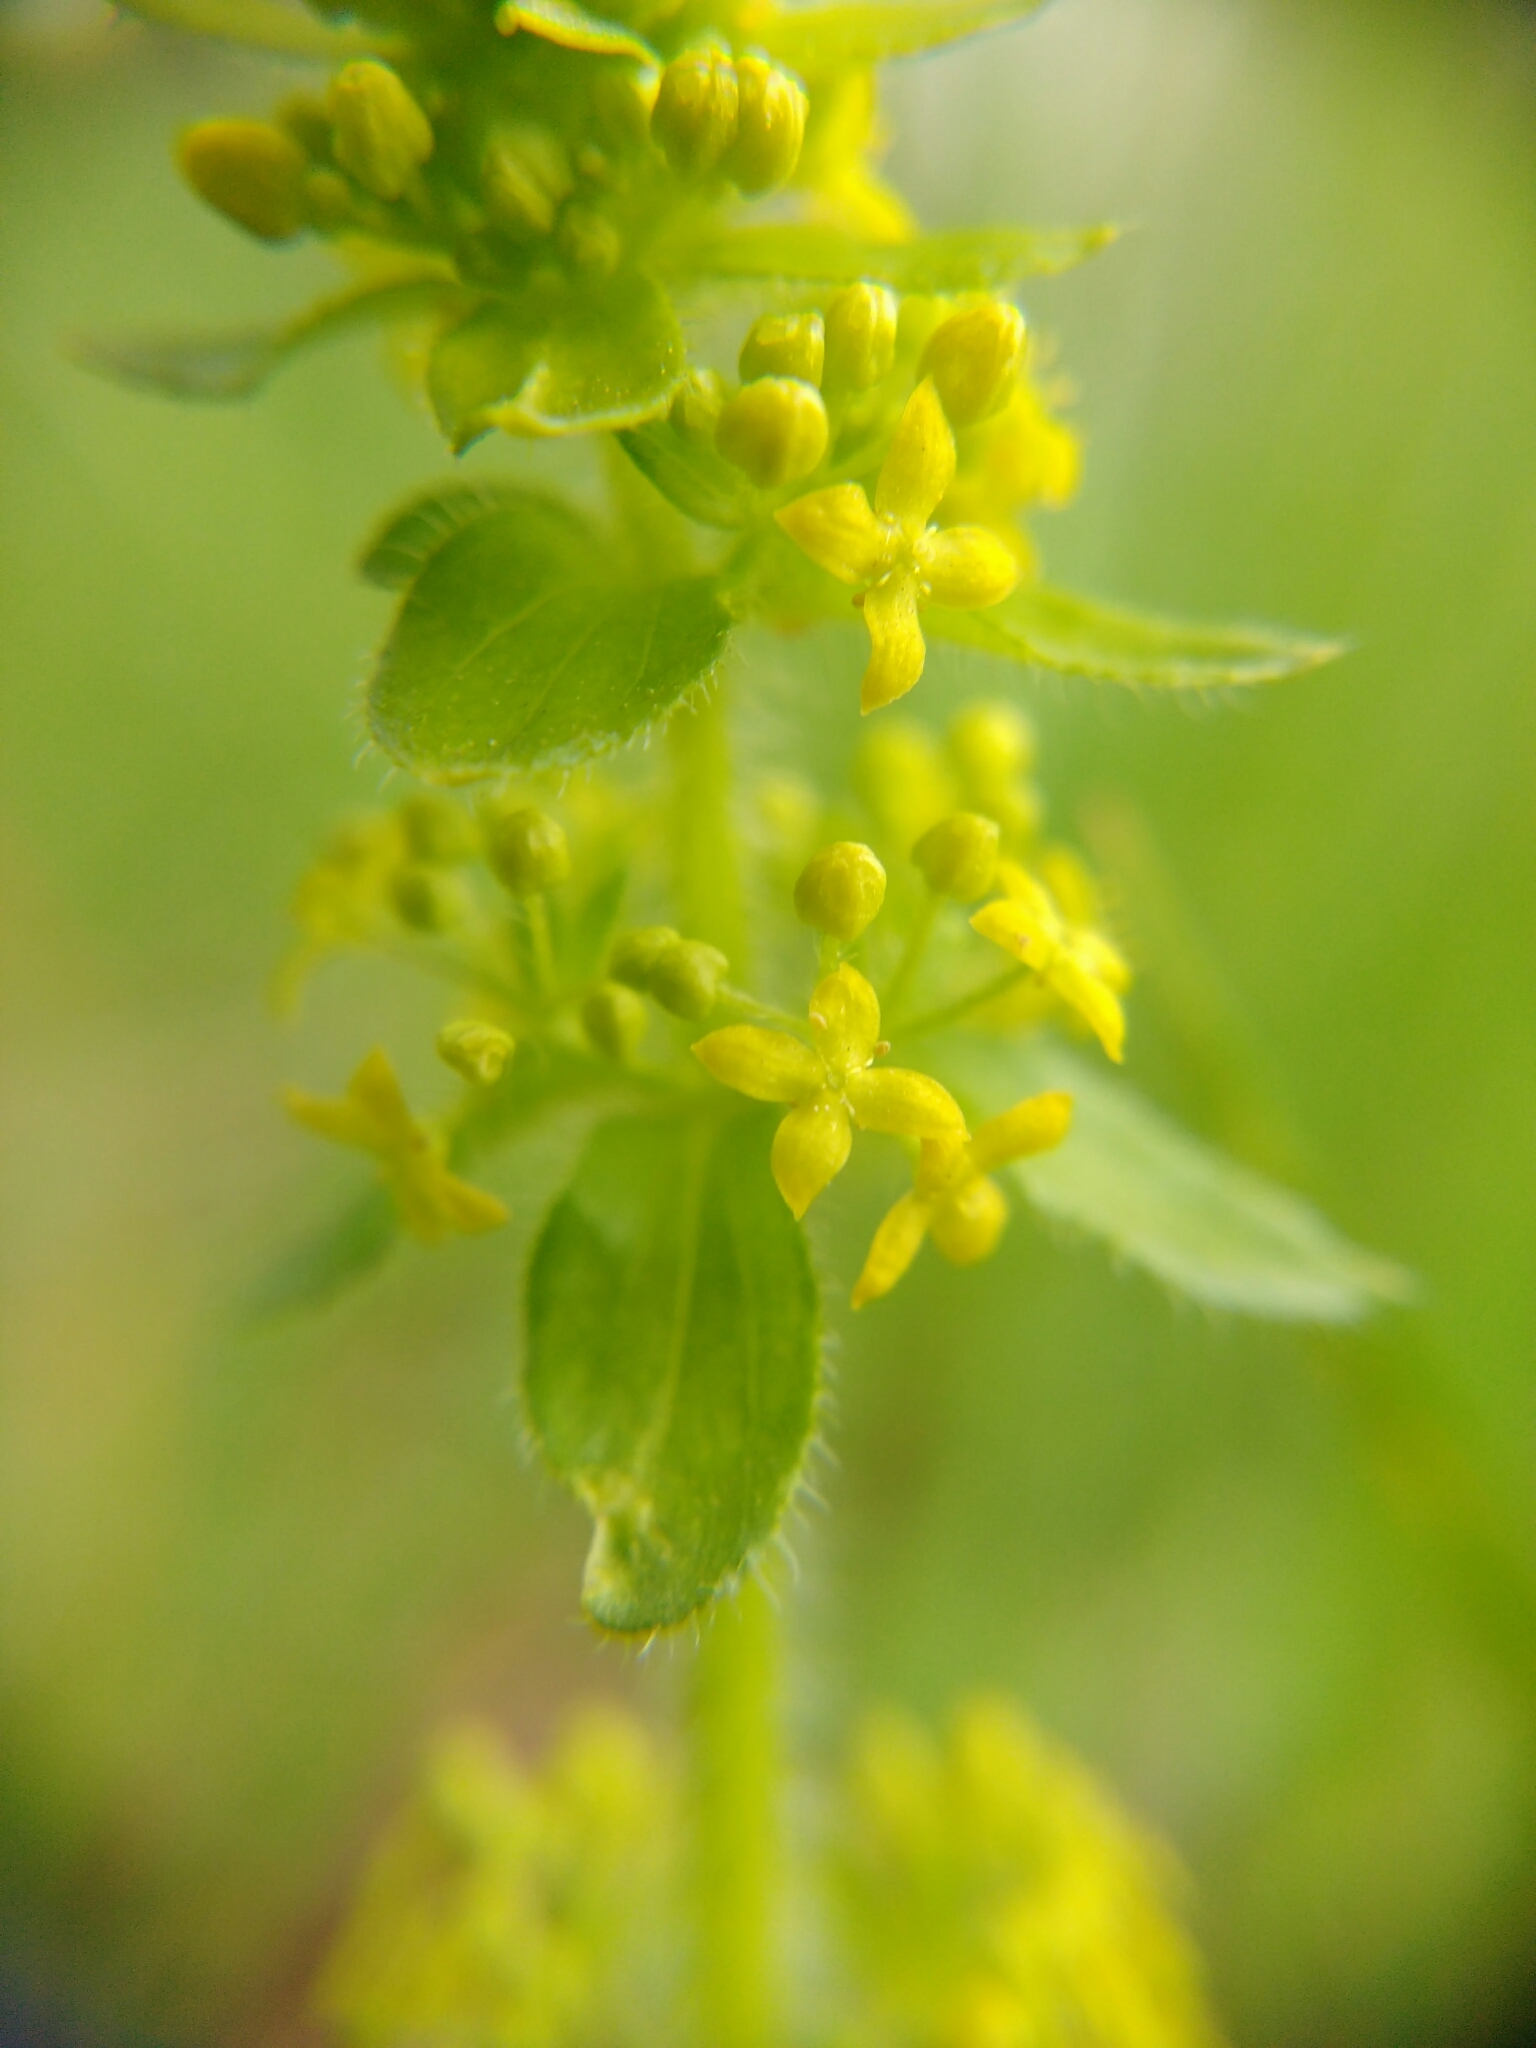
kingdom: Plantae
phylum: Tracheophyta
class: Magnoliopsida
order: Gentianales
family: Rubiaceae
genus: Cruciata
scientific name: Cruciata laevipes
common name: Crosswort
